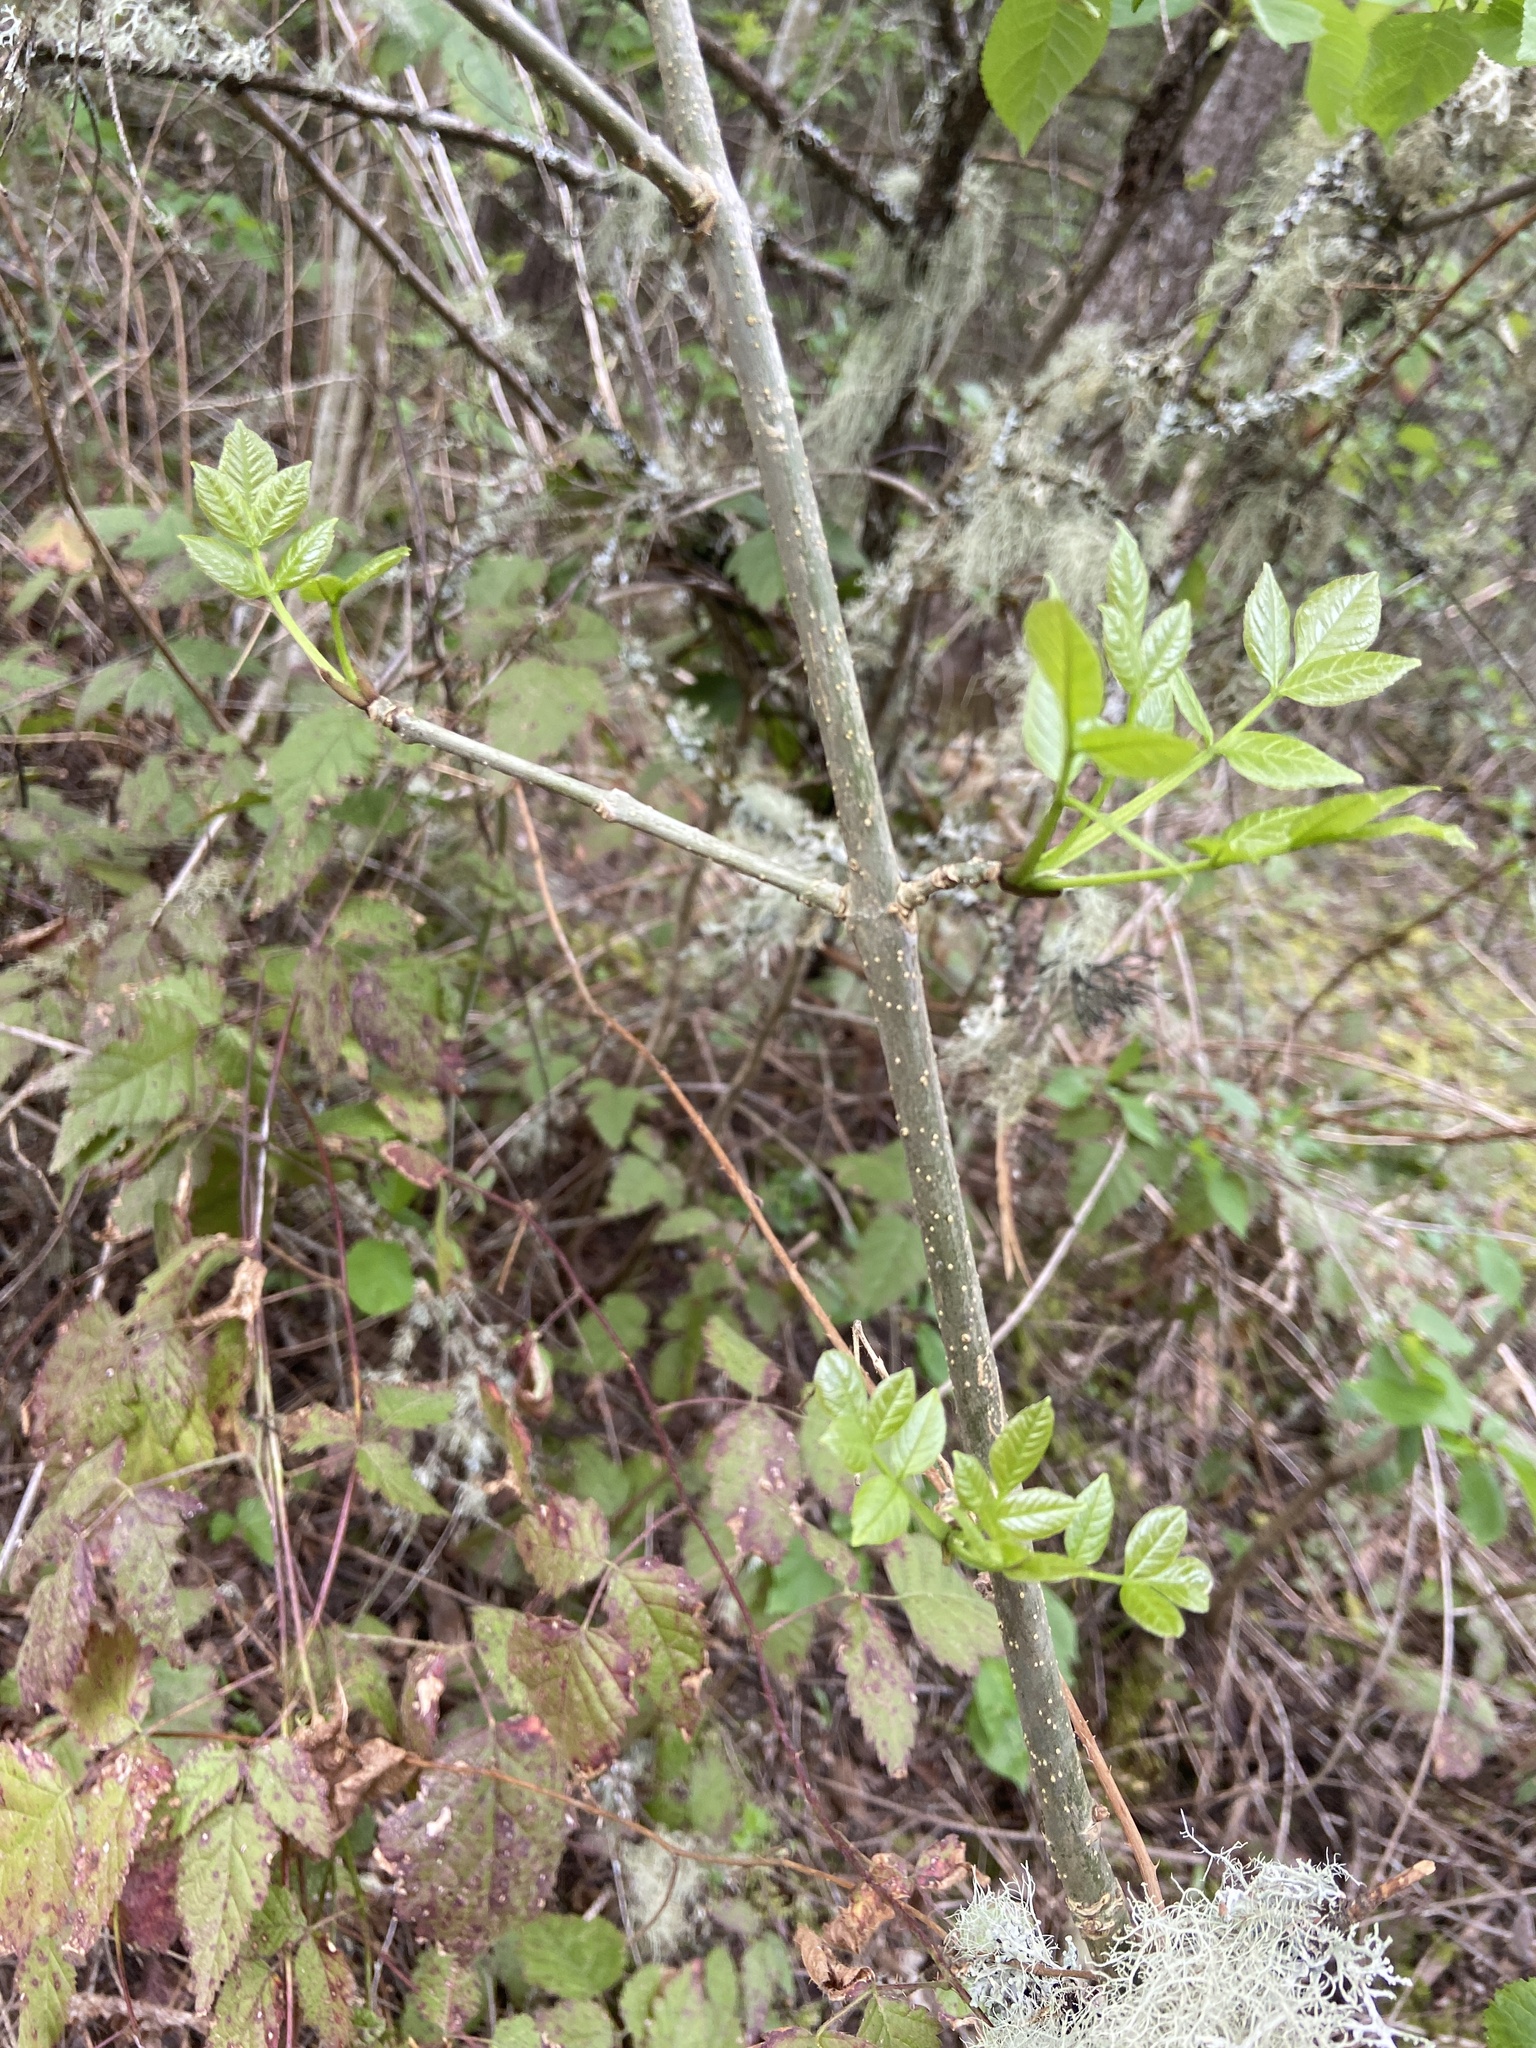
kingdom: Plantae
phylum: Tracheophyta
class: Magnoliopsida
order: Lamiales
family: Oleaceae
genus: Fraxinus
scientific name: Fraxinus latifolia
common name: Oregon ash
